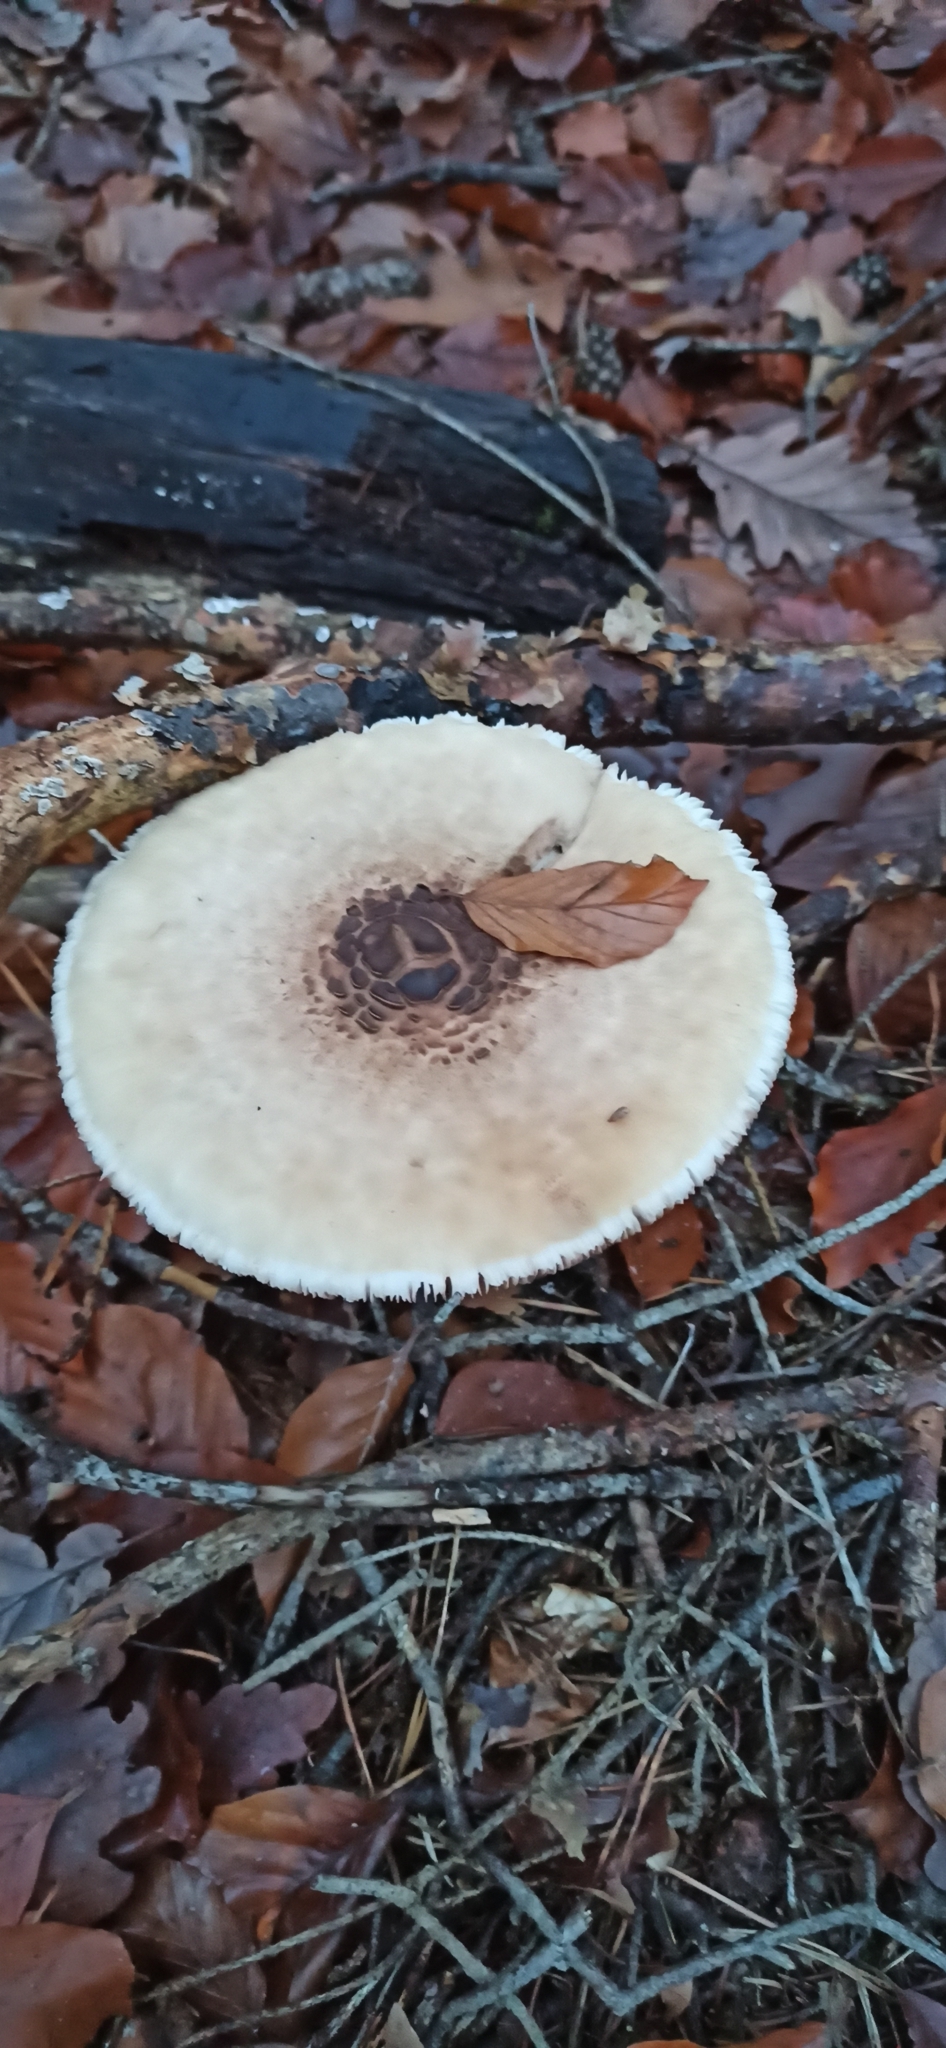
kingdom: Fungi
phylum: Basidiomycota
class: Agaricomycetes
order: Agaricales
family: Agaricaceae
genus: Macrolepiota
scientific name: Macrolepiota procera
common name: Parasol
